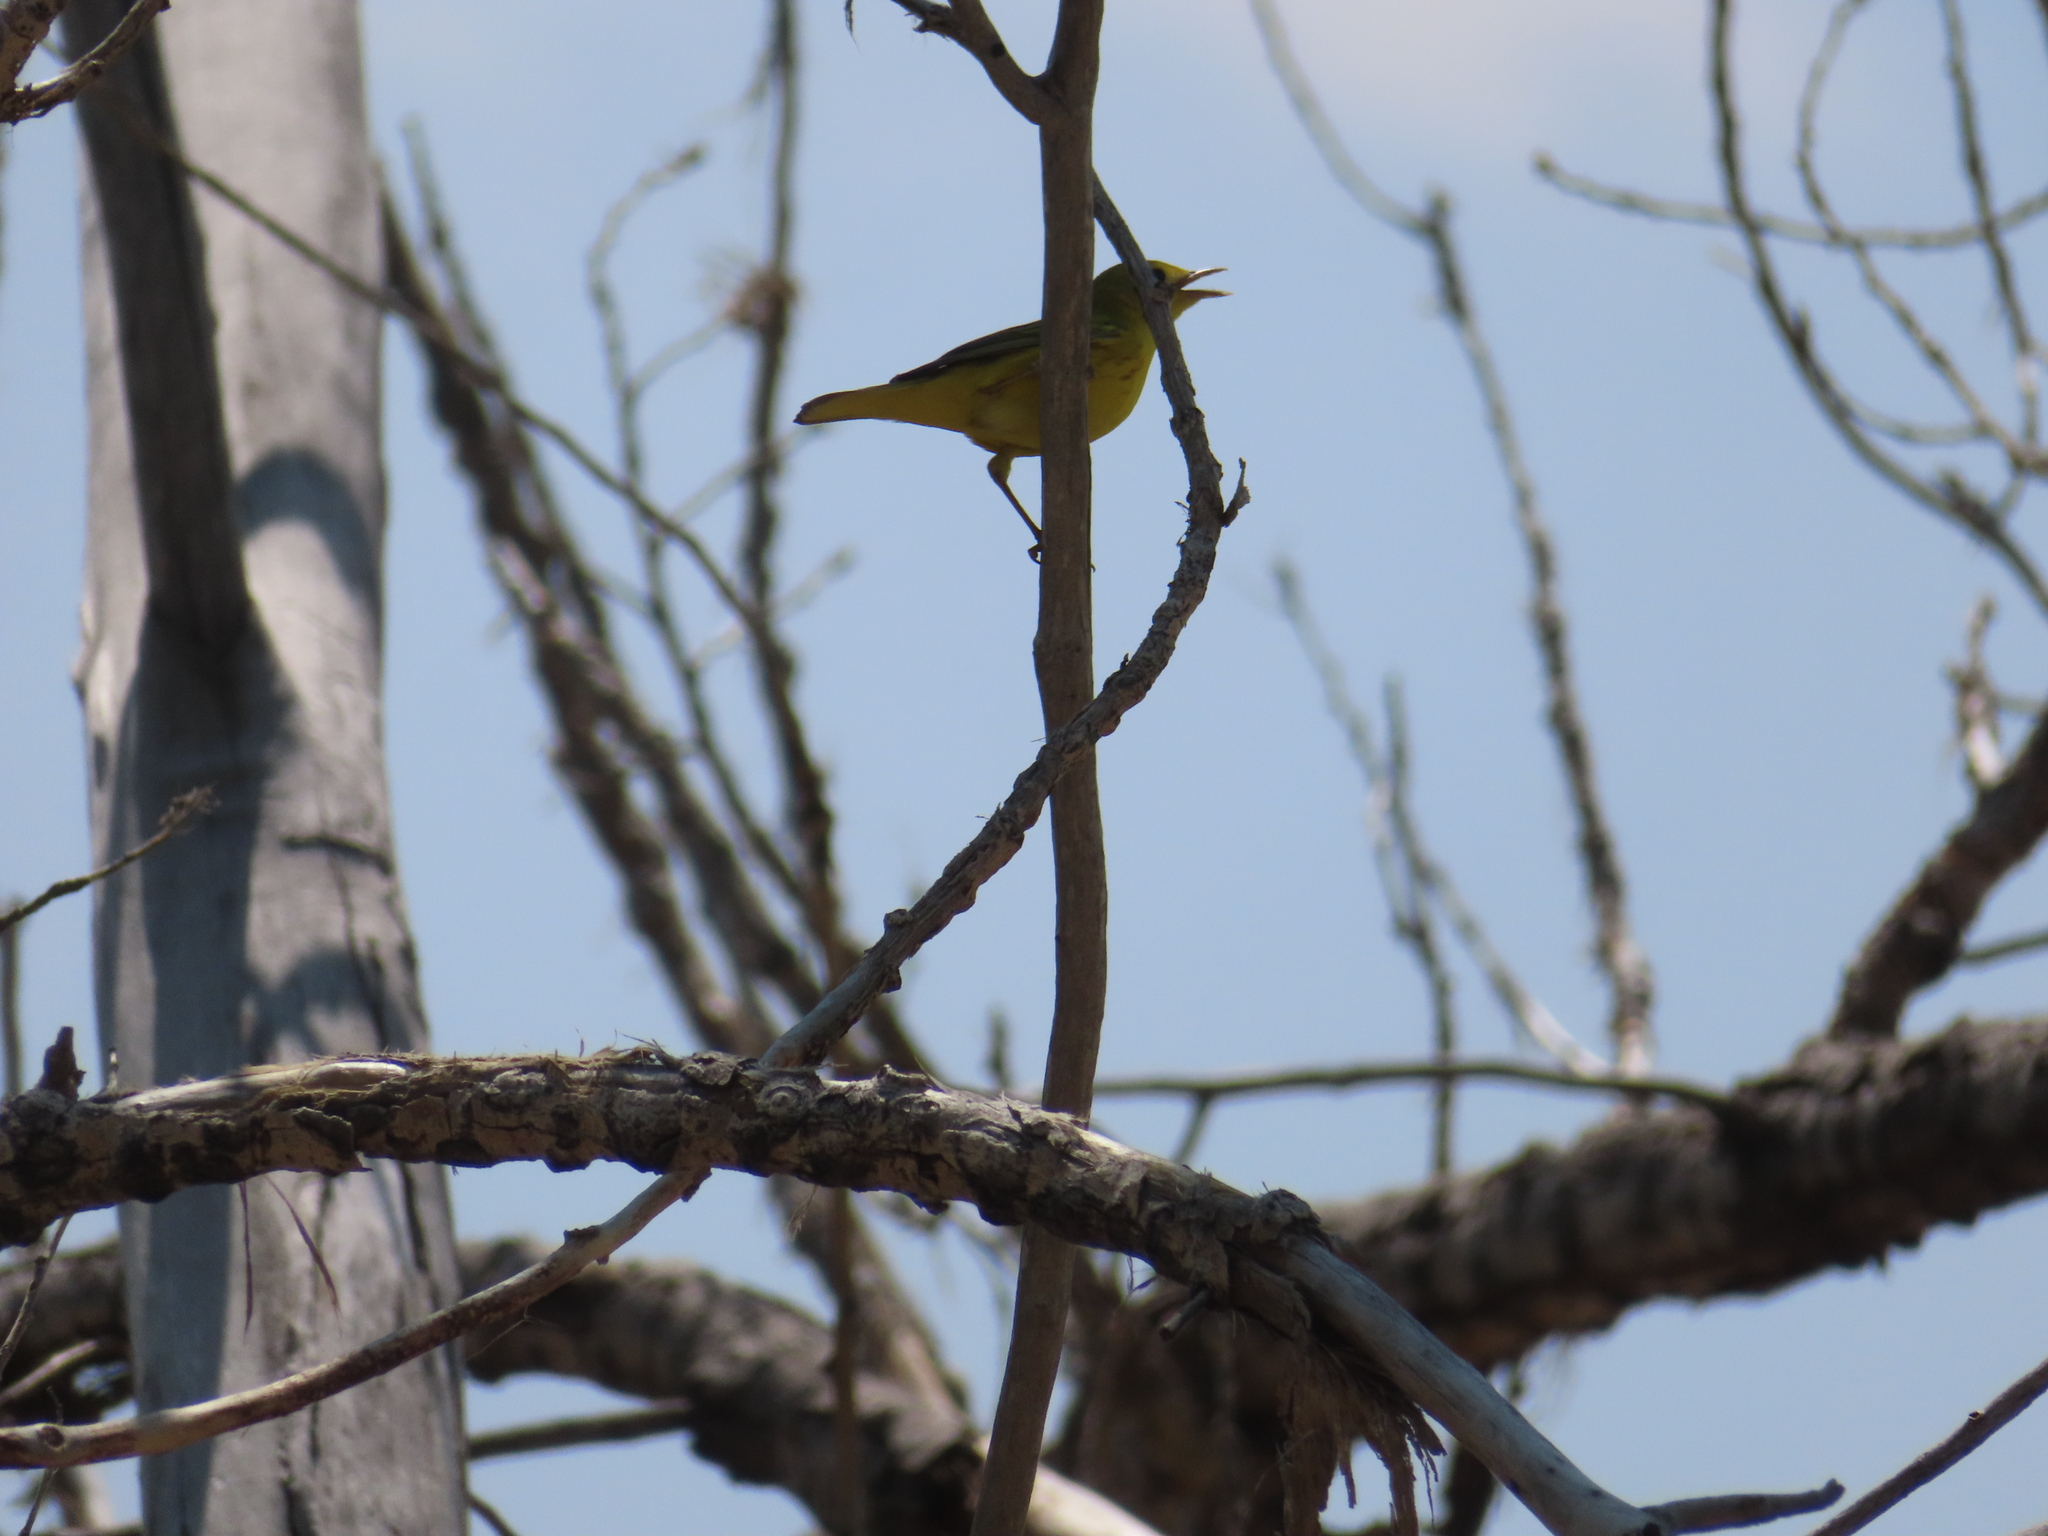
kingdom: Animalia
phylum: Chordata
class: Aves
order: Passeriformes
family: Parulidae
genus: Setophaga
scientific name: Setophaga petechia
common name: Yellow warbler
